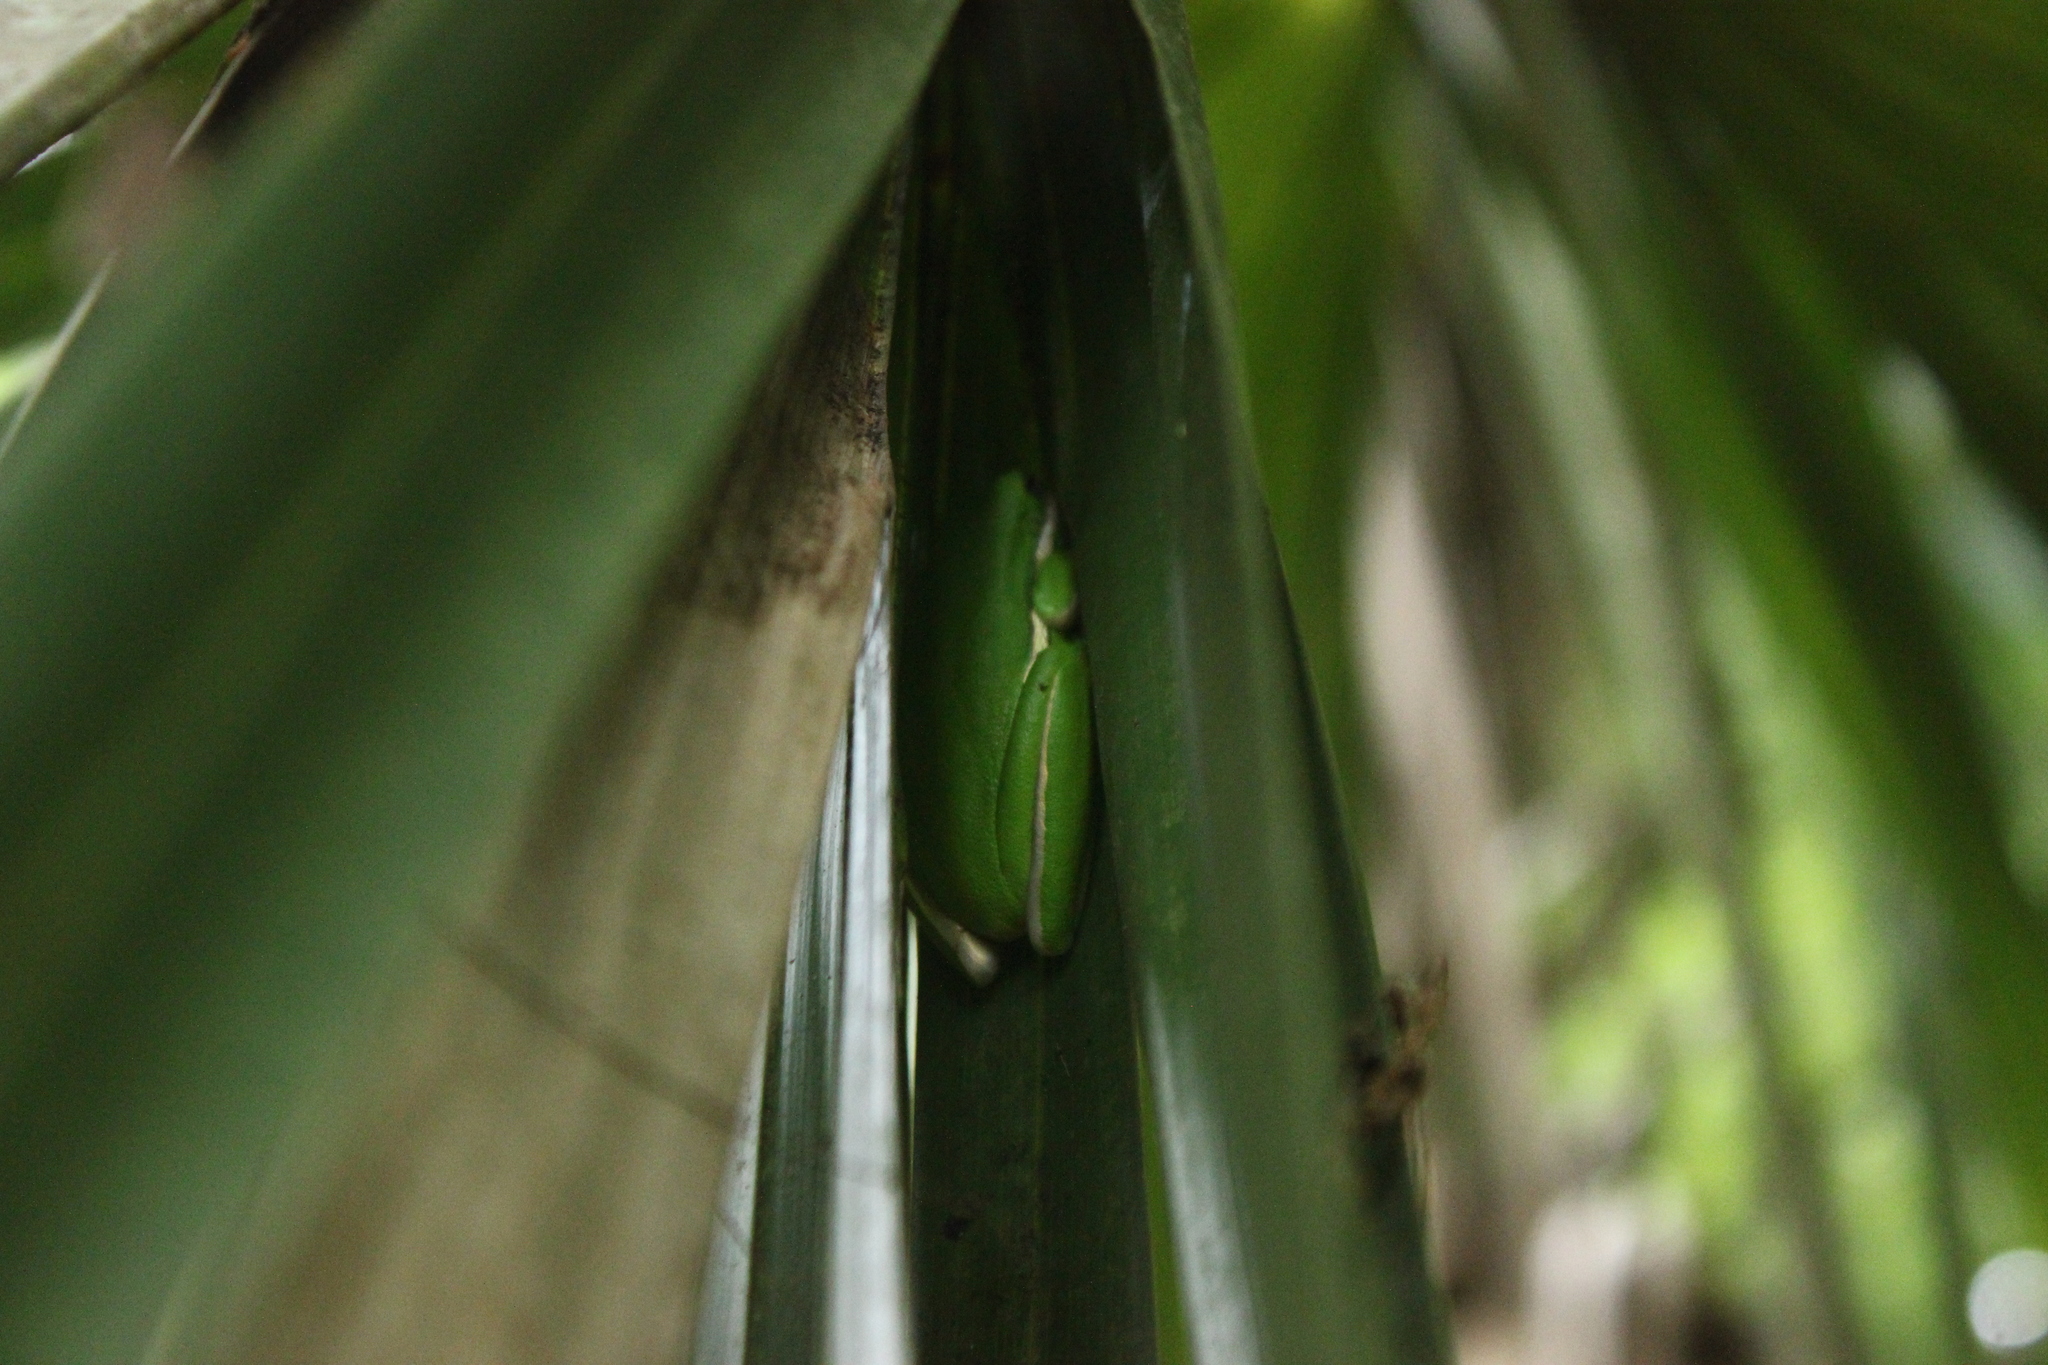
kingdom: Animalia
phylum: Chordata
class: Amphibia
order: Anura
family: Hylidae
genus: Dryophytes
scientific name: Dryophytes cinereus
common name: Green treefrog
